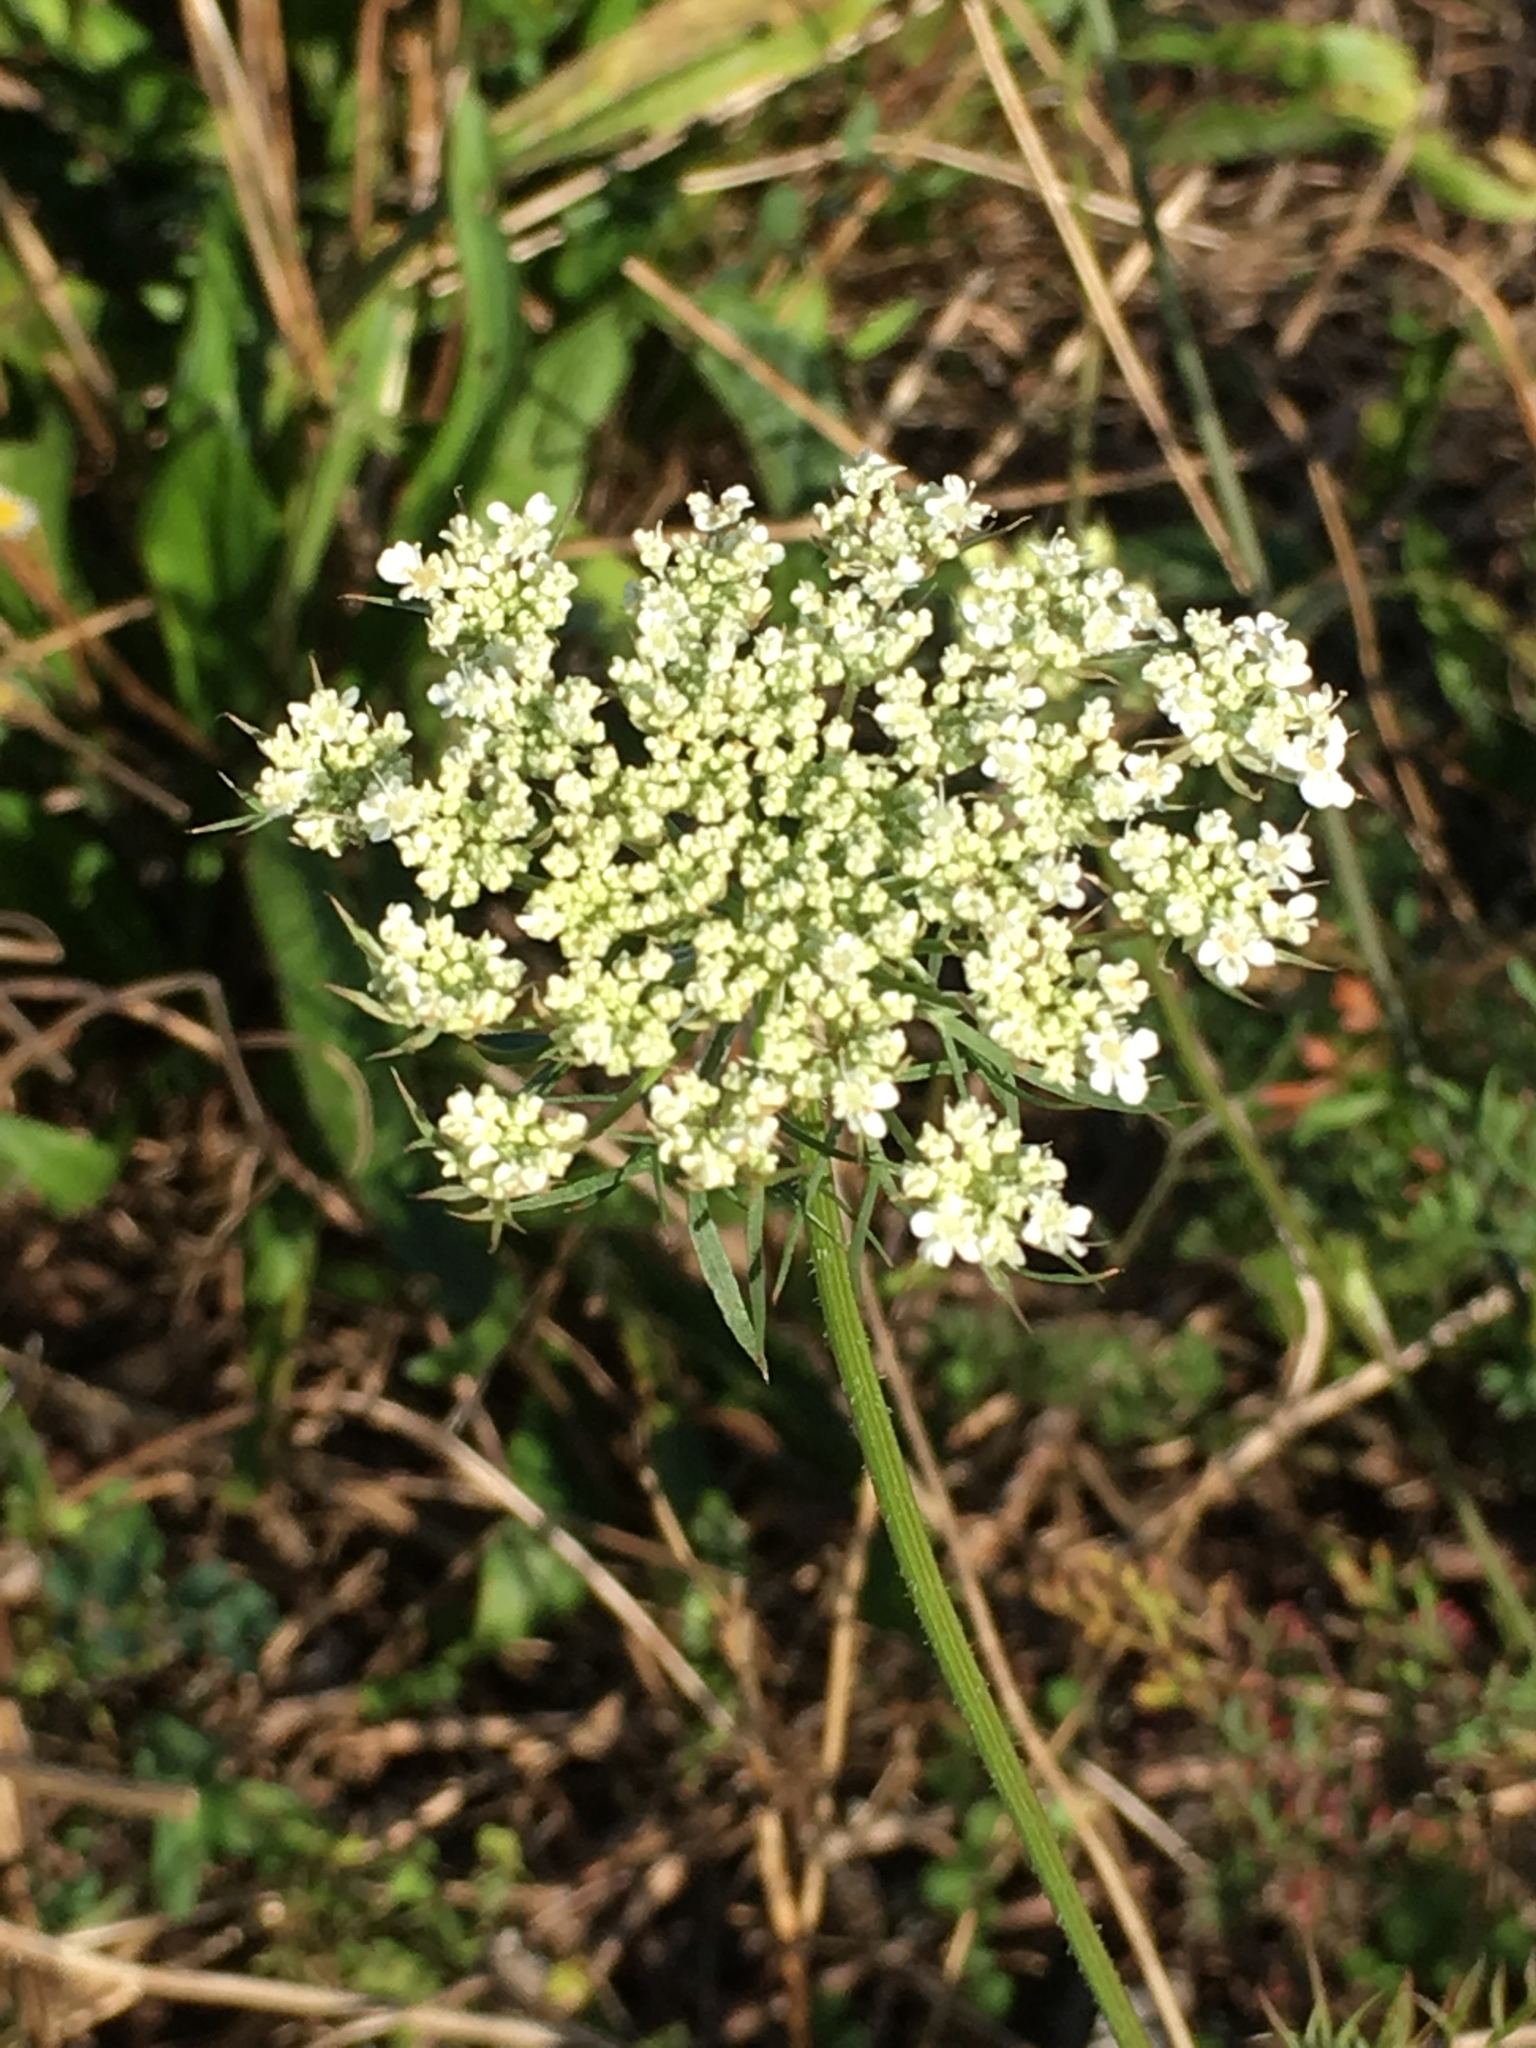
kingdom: Plantae
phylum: Tracheophyta
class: Magnoliopsida
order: Apiales
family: Apiaceae
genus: Daucus
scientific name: Daucus carota
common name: Wild carrot
